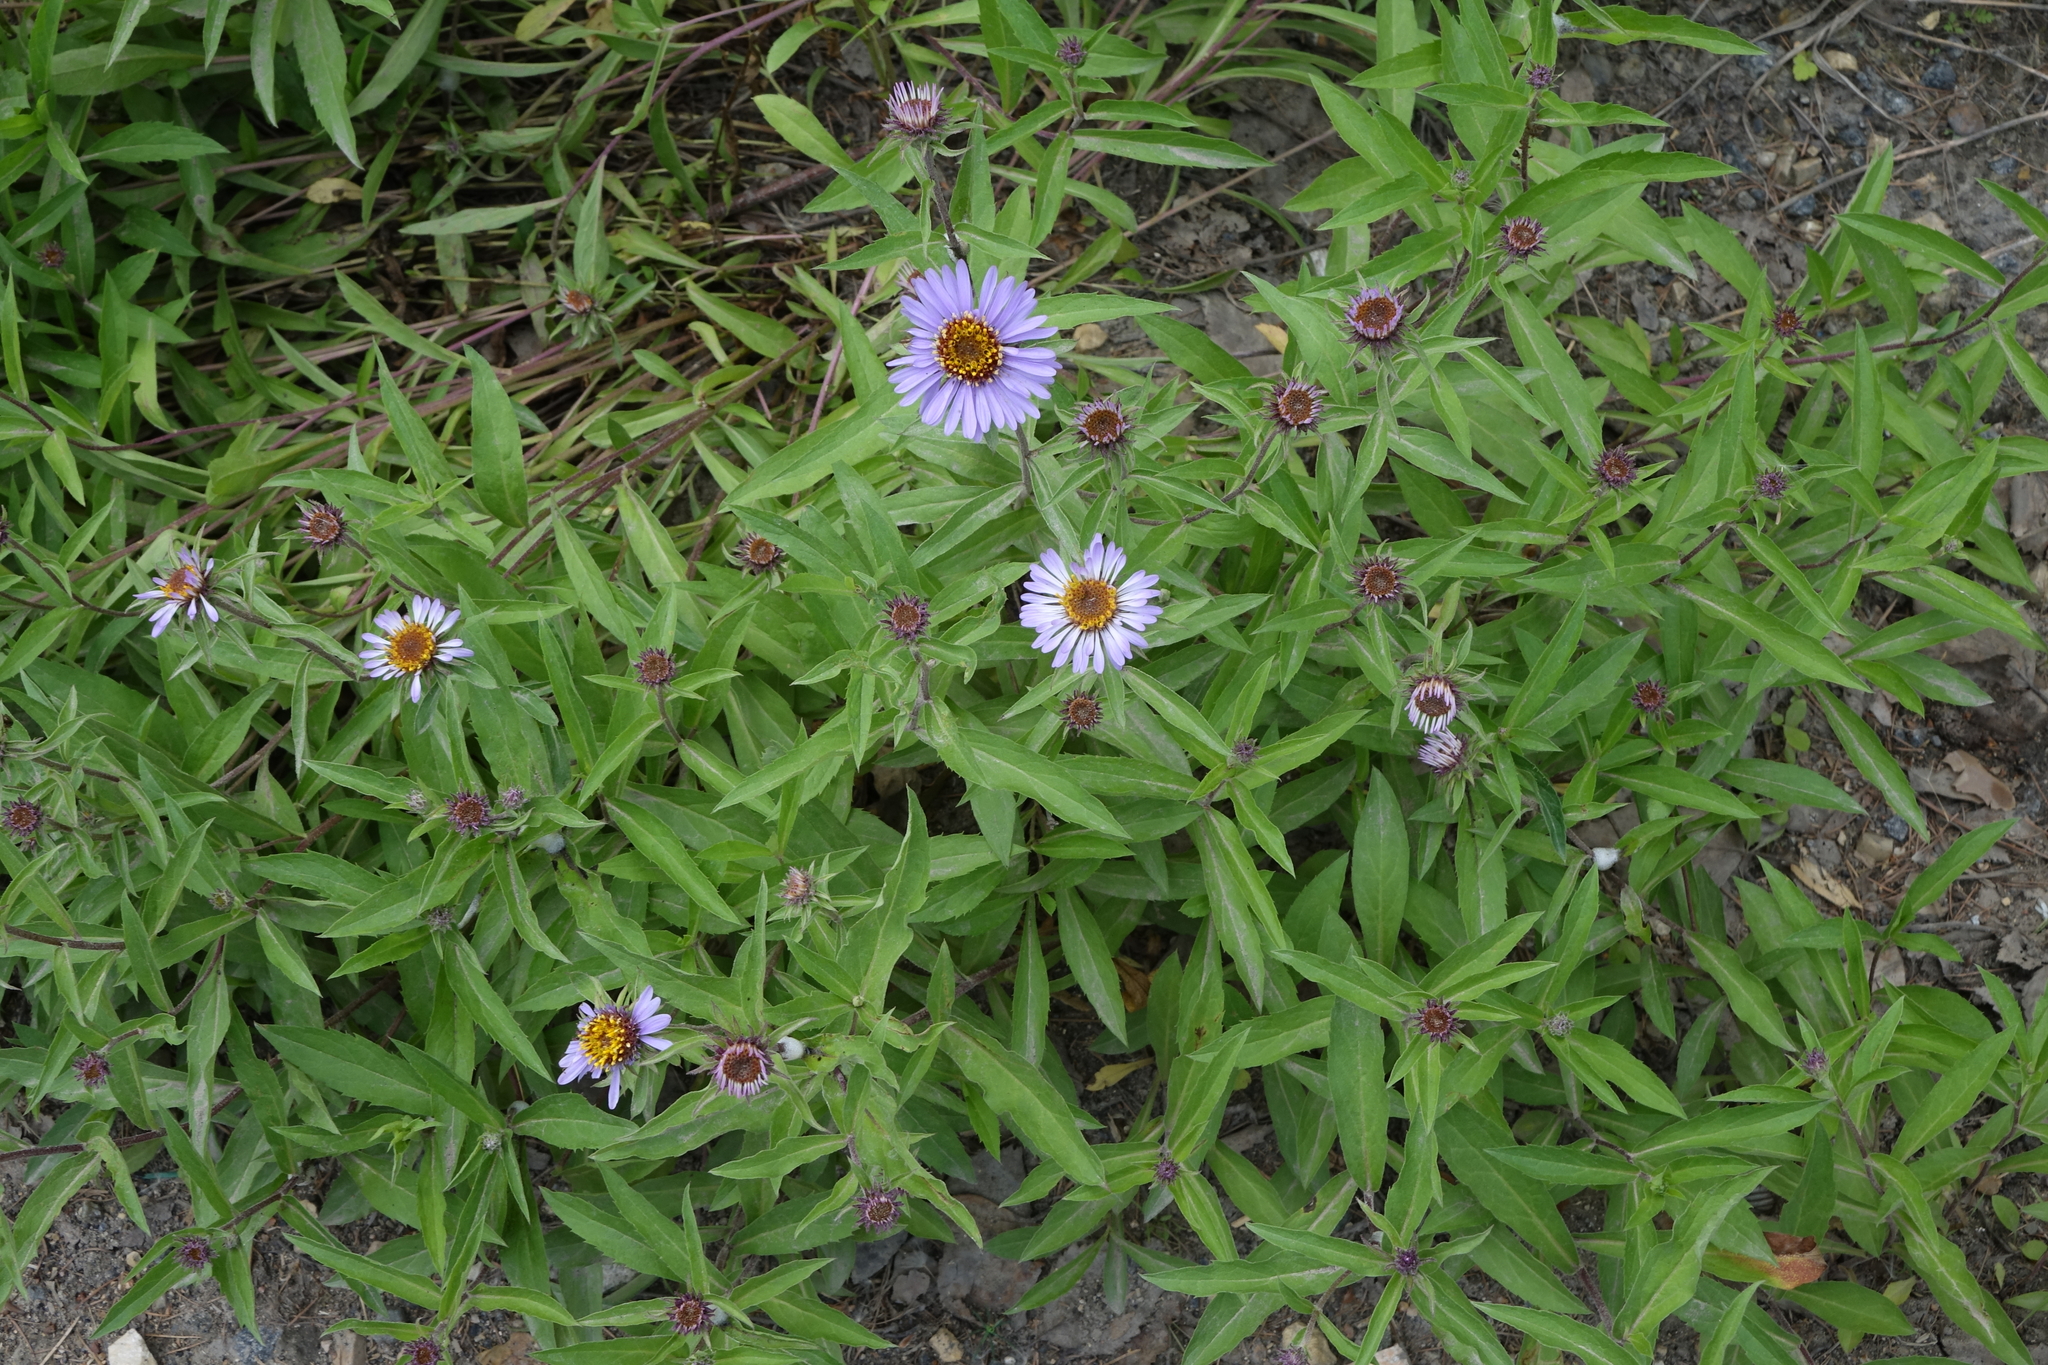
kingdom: Plantae
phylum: Tracheophyta
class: Magnoliopsida
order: Asterales
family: Asteraceae
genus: Eurybia
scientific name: Eurybia sibirica
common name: Arctic aster
